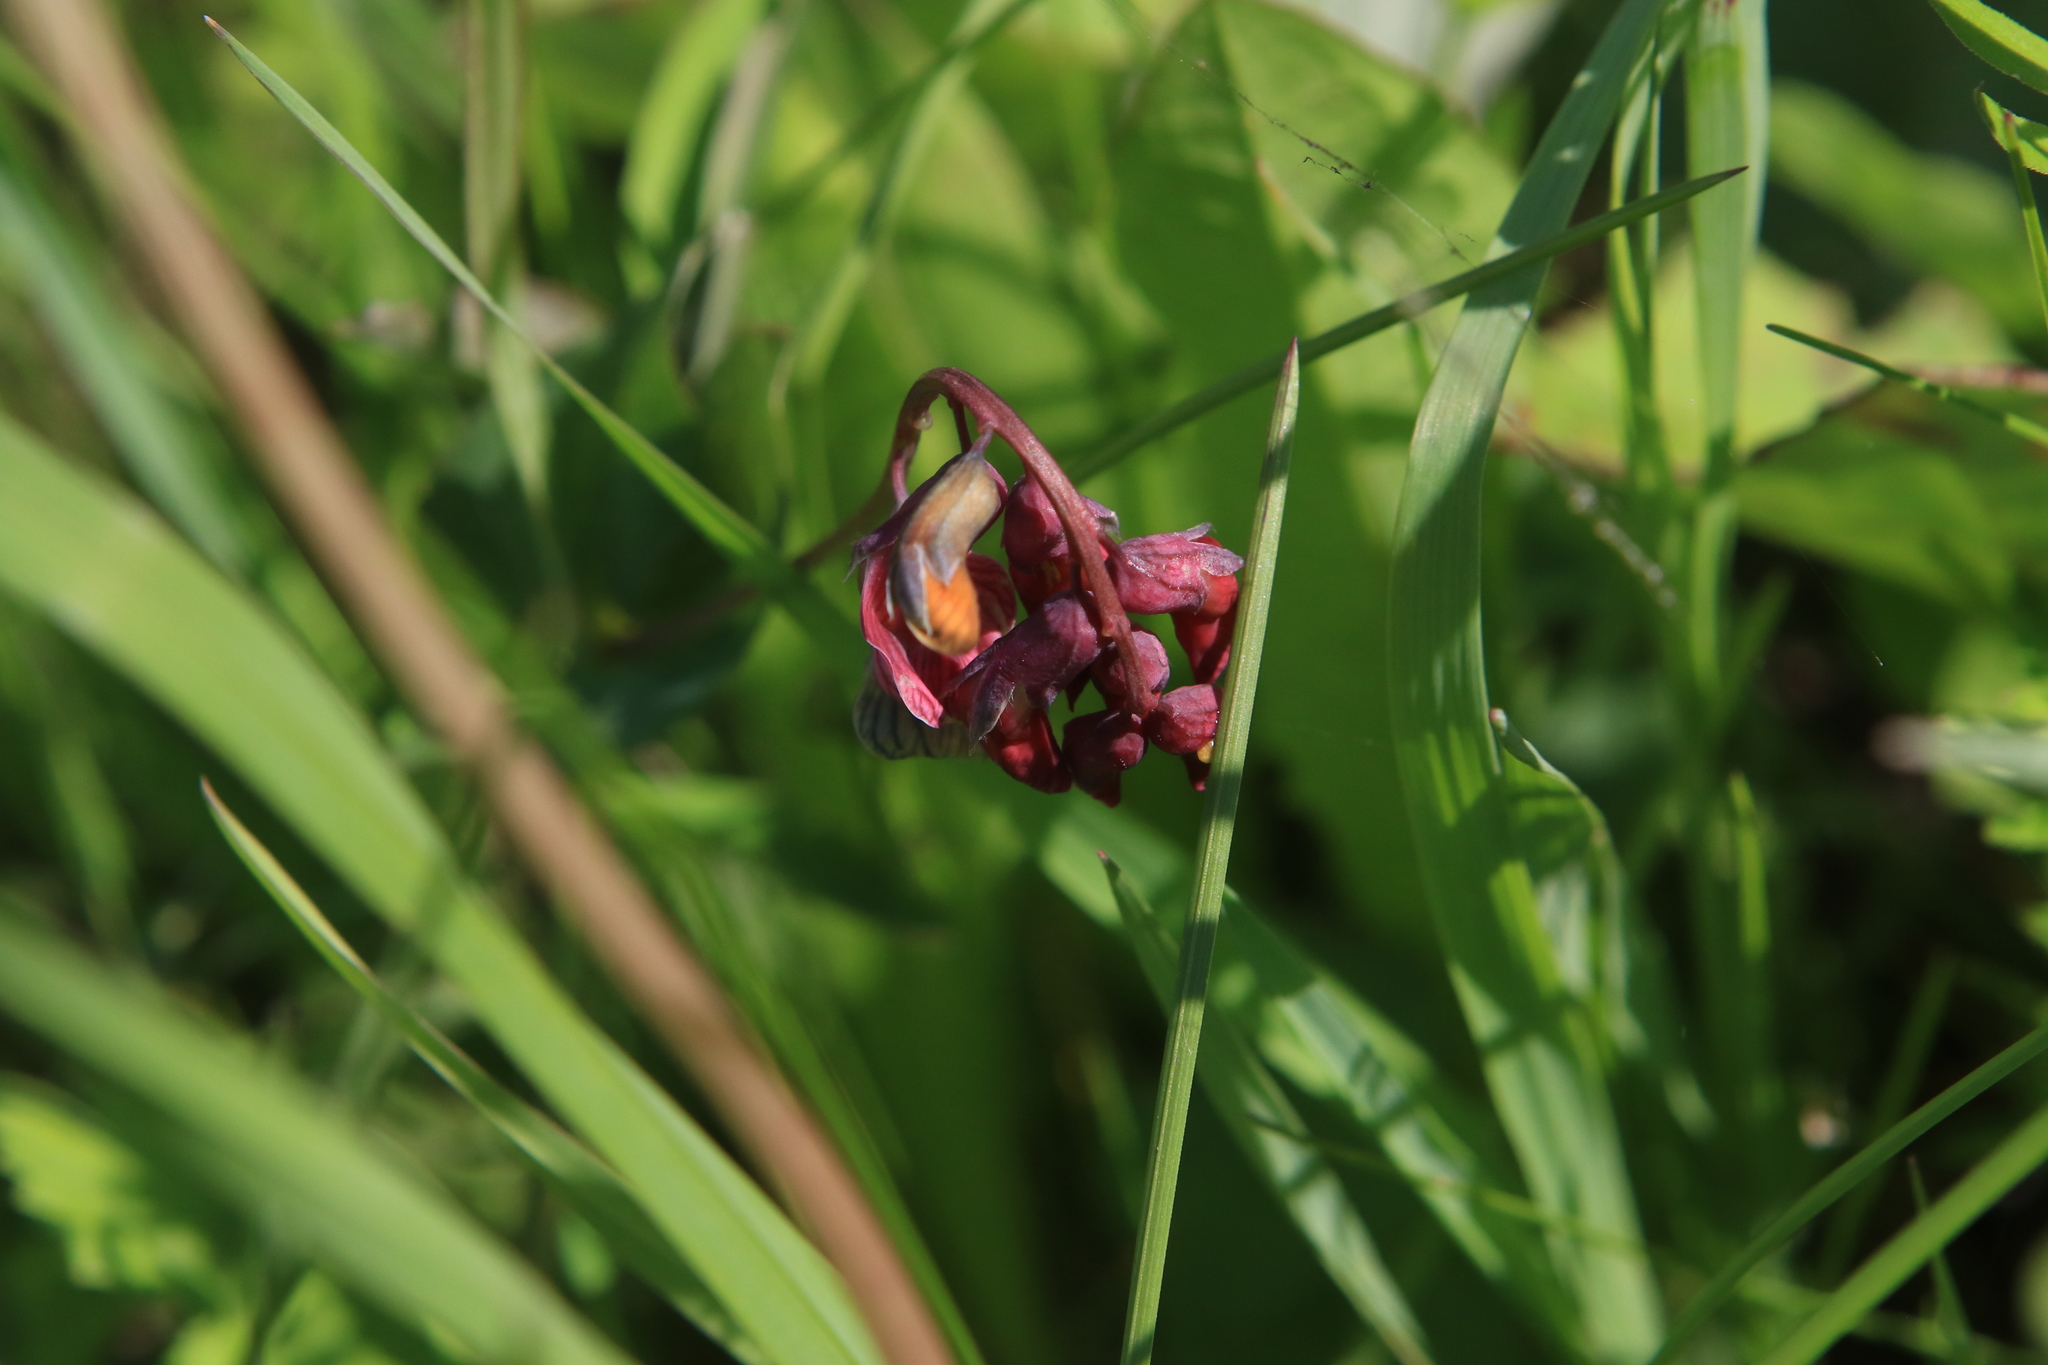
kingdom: Plantae
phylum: Tracheophyta
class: Magnoliopsida
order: Fabales
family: Fabaceae
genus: Lathyrus
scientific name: Lathyrus pisiformis
